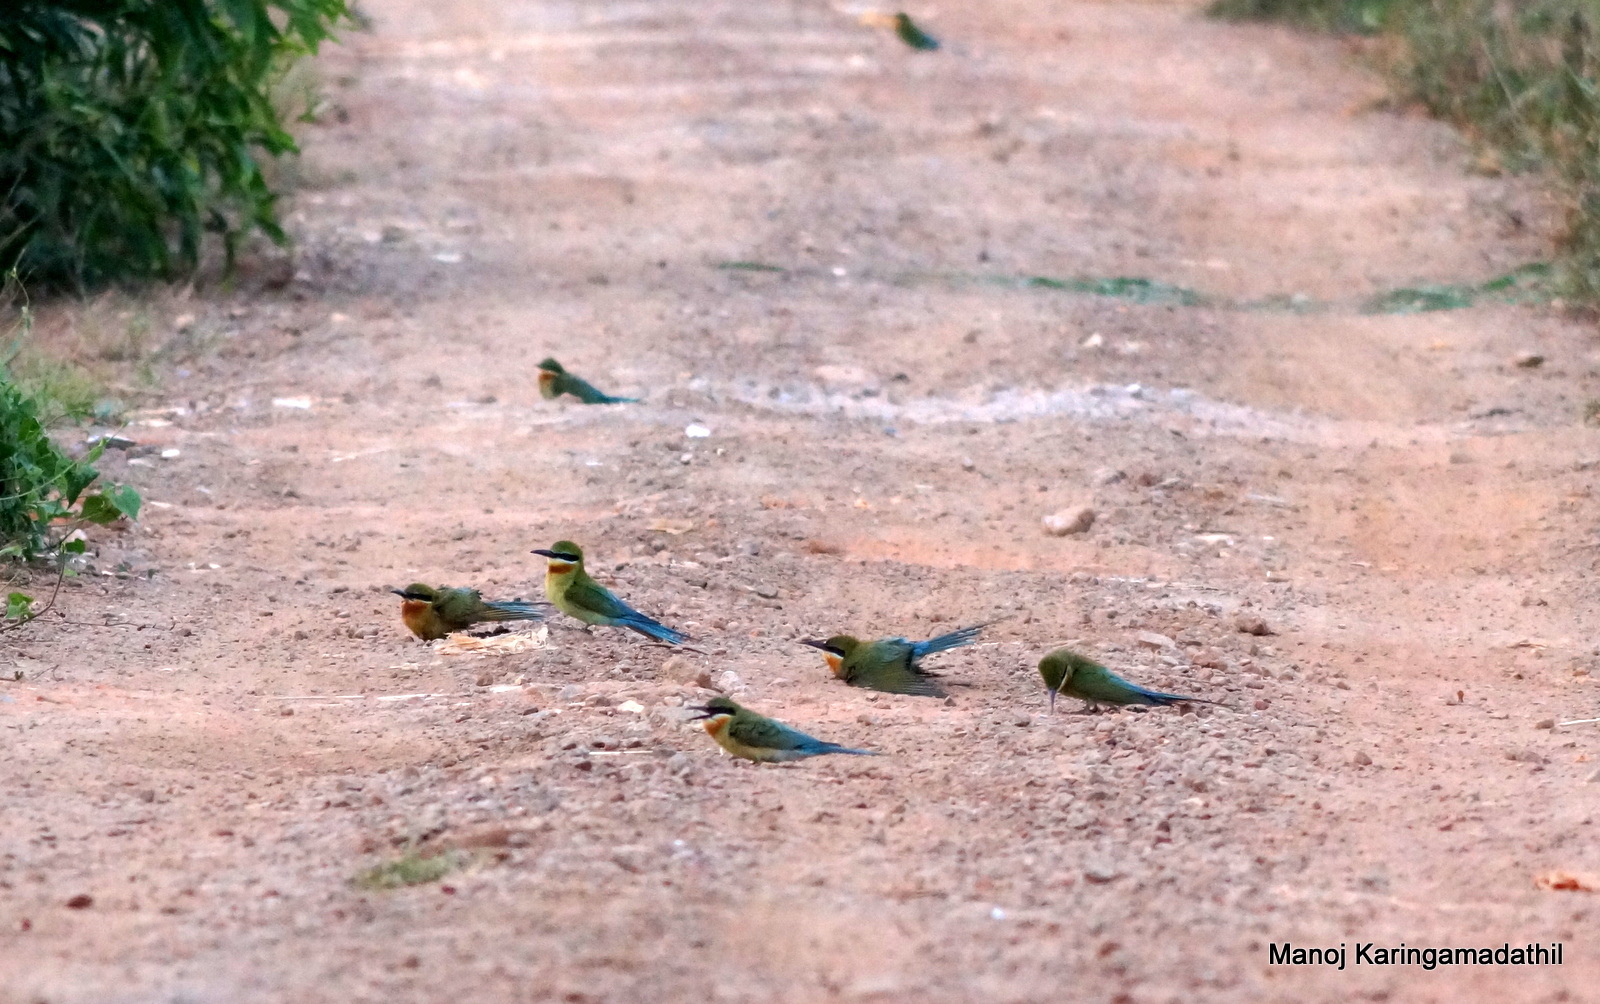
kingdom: Animalia
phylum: Chordata
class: Aves
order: Coraciiformes
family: Meropidae
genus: Merops
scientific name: Merops philippinus
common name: Blue-tailed bee-eater
